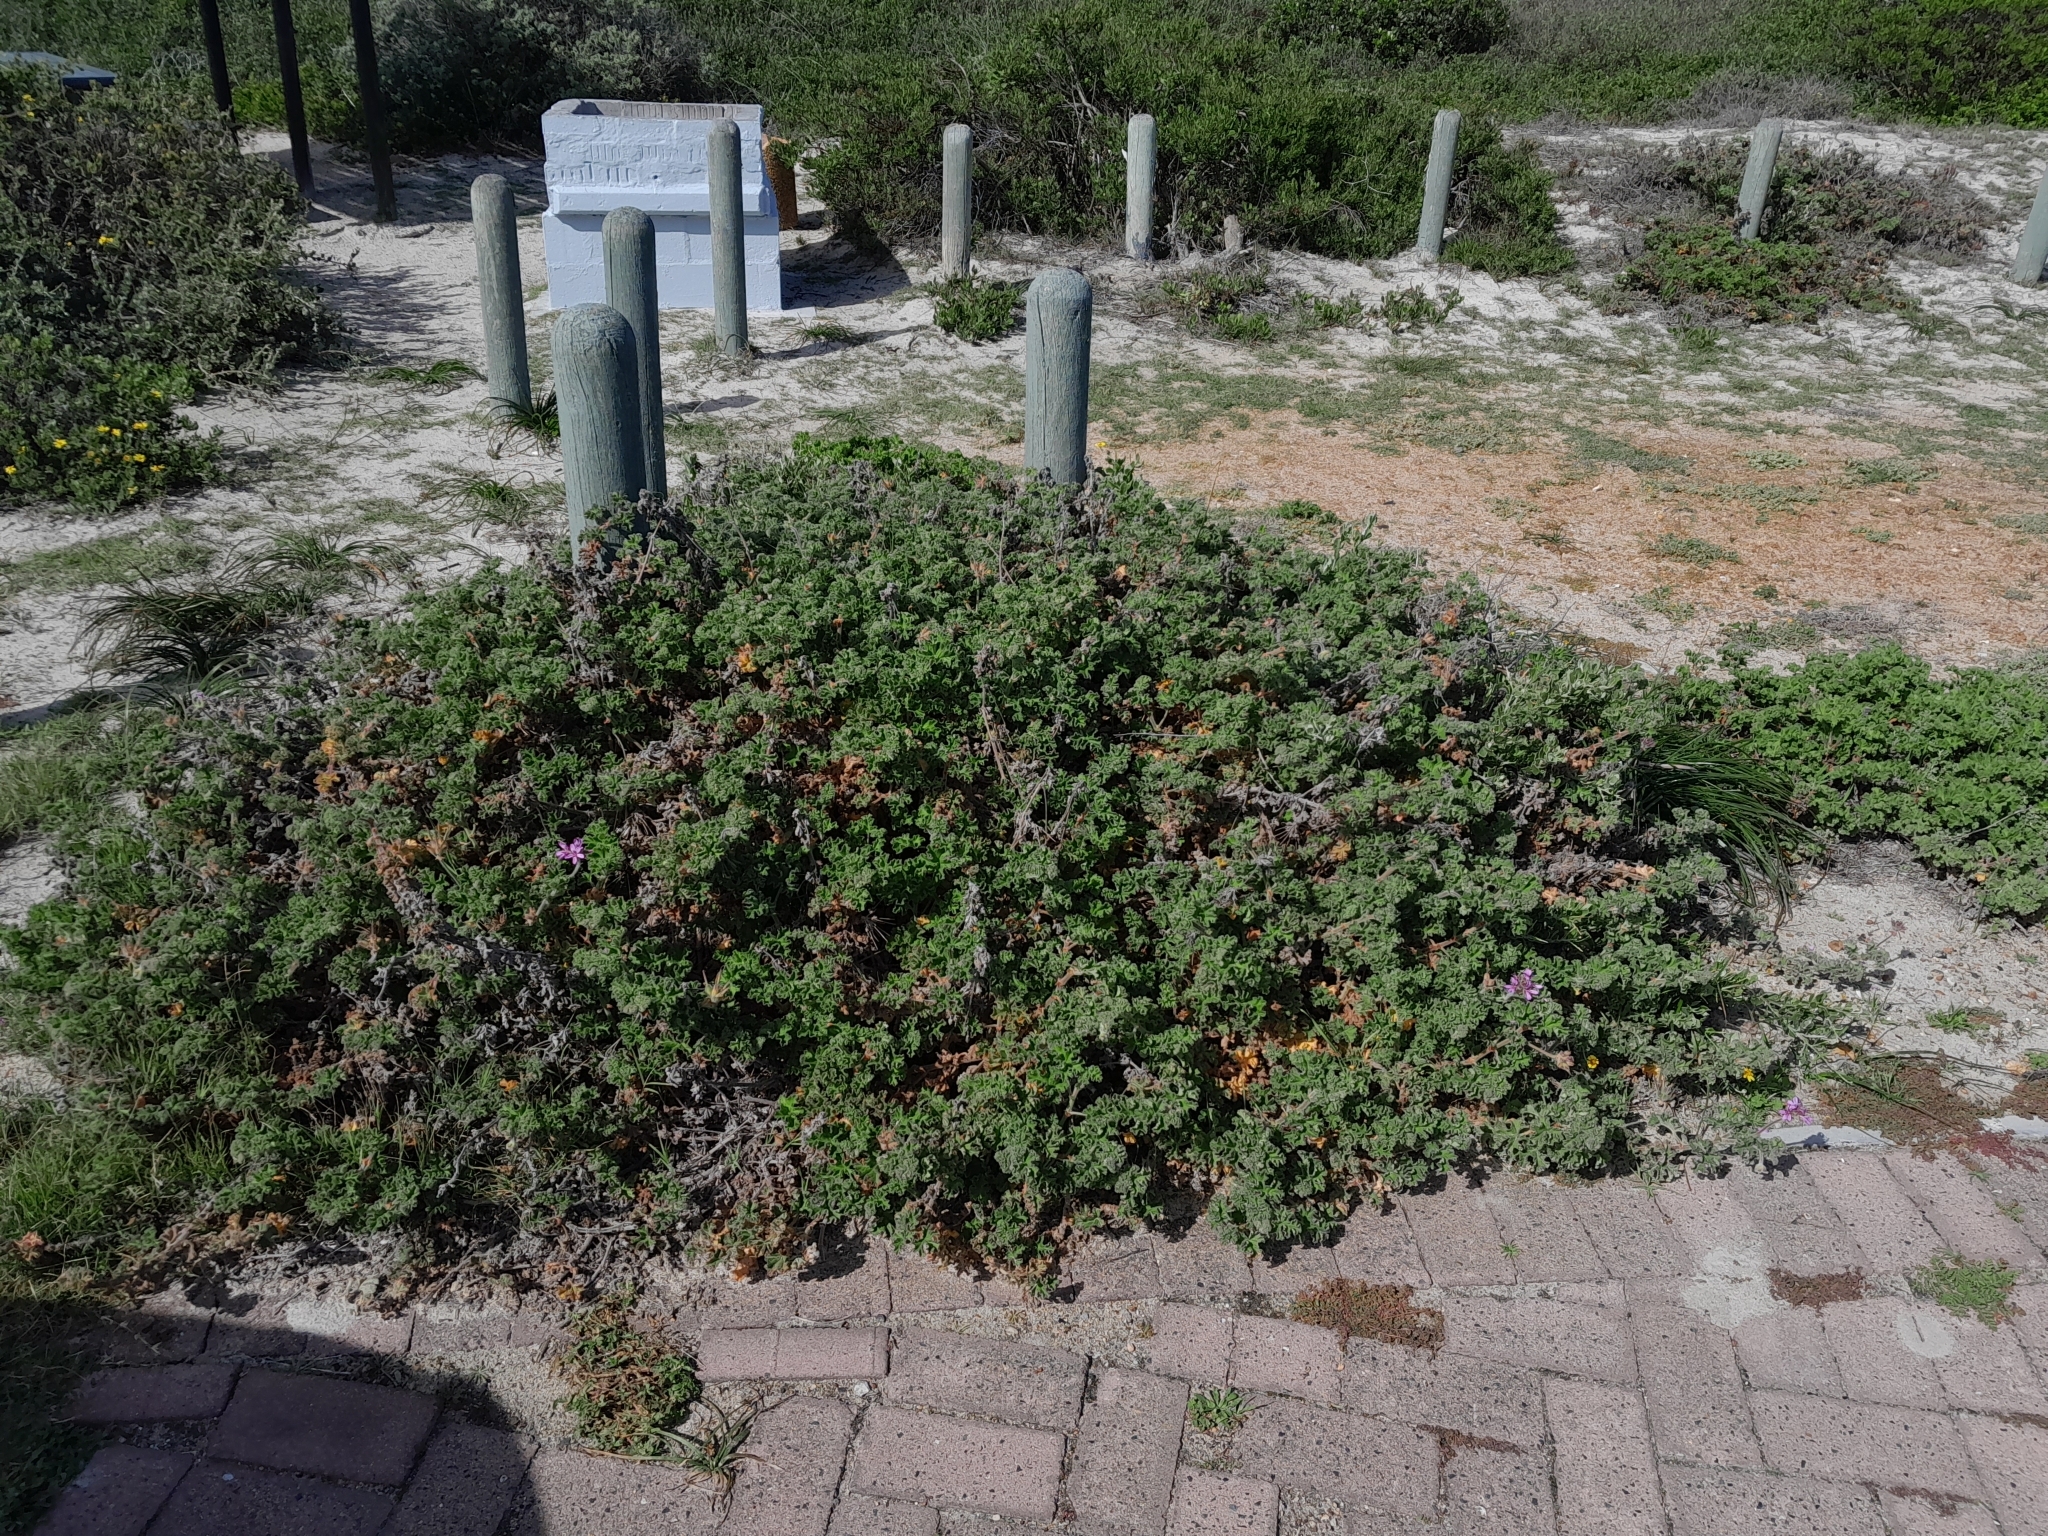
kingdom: Plantae
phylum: Tracheophyta
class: Magnoliopsida
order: Geraniales
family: Geraniaceae
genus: Pelargonium
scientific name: Pelargonium capitatum
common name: Rose scented geranium
